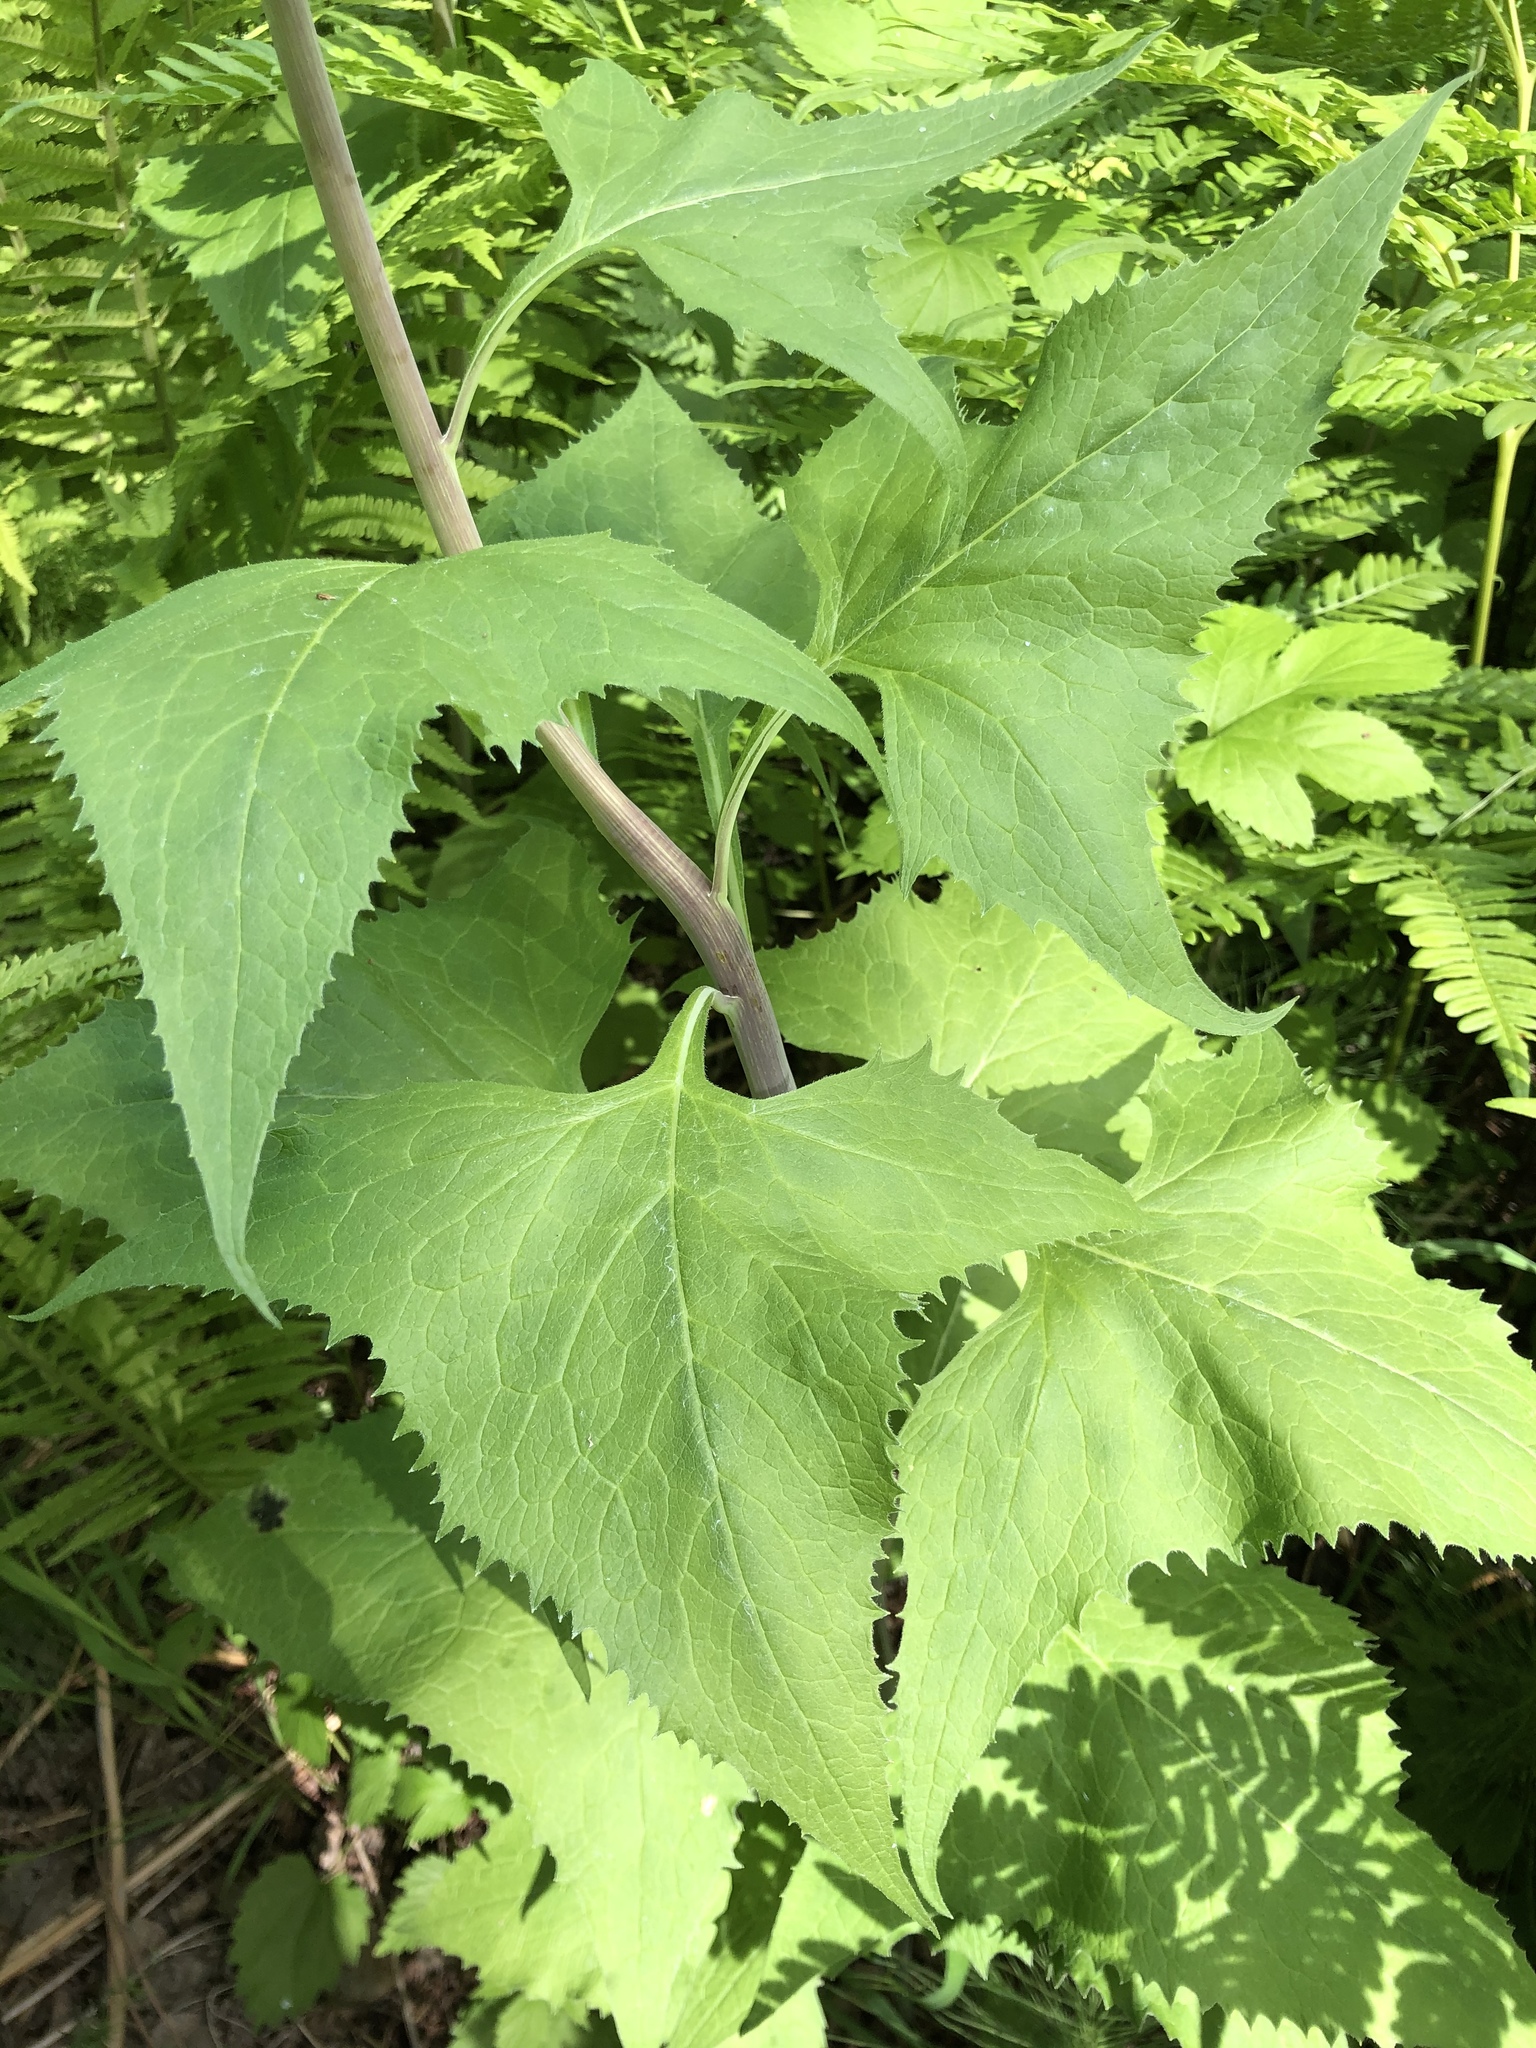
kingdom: Plantae
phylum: Tracheophyta
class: Magnoliopsida
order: Asterales
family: Asteraceae
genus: Parasenecio
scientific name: Parasenecio hastatus
